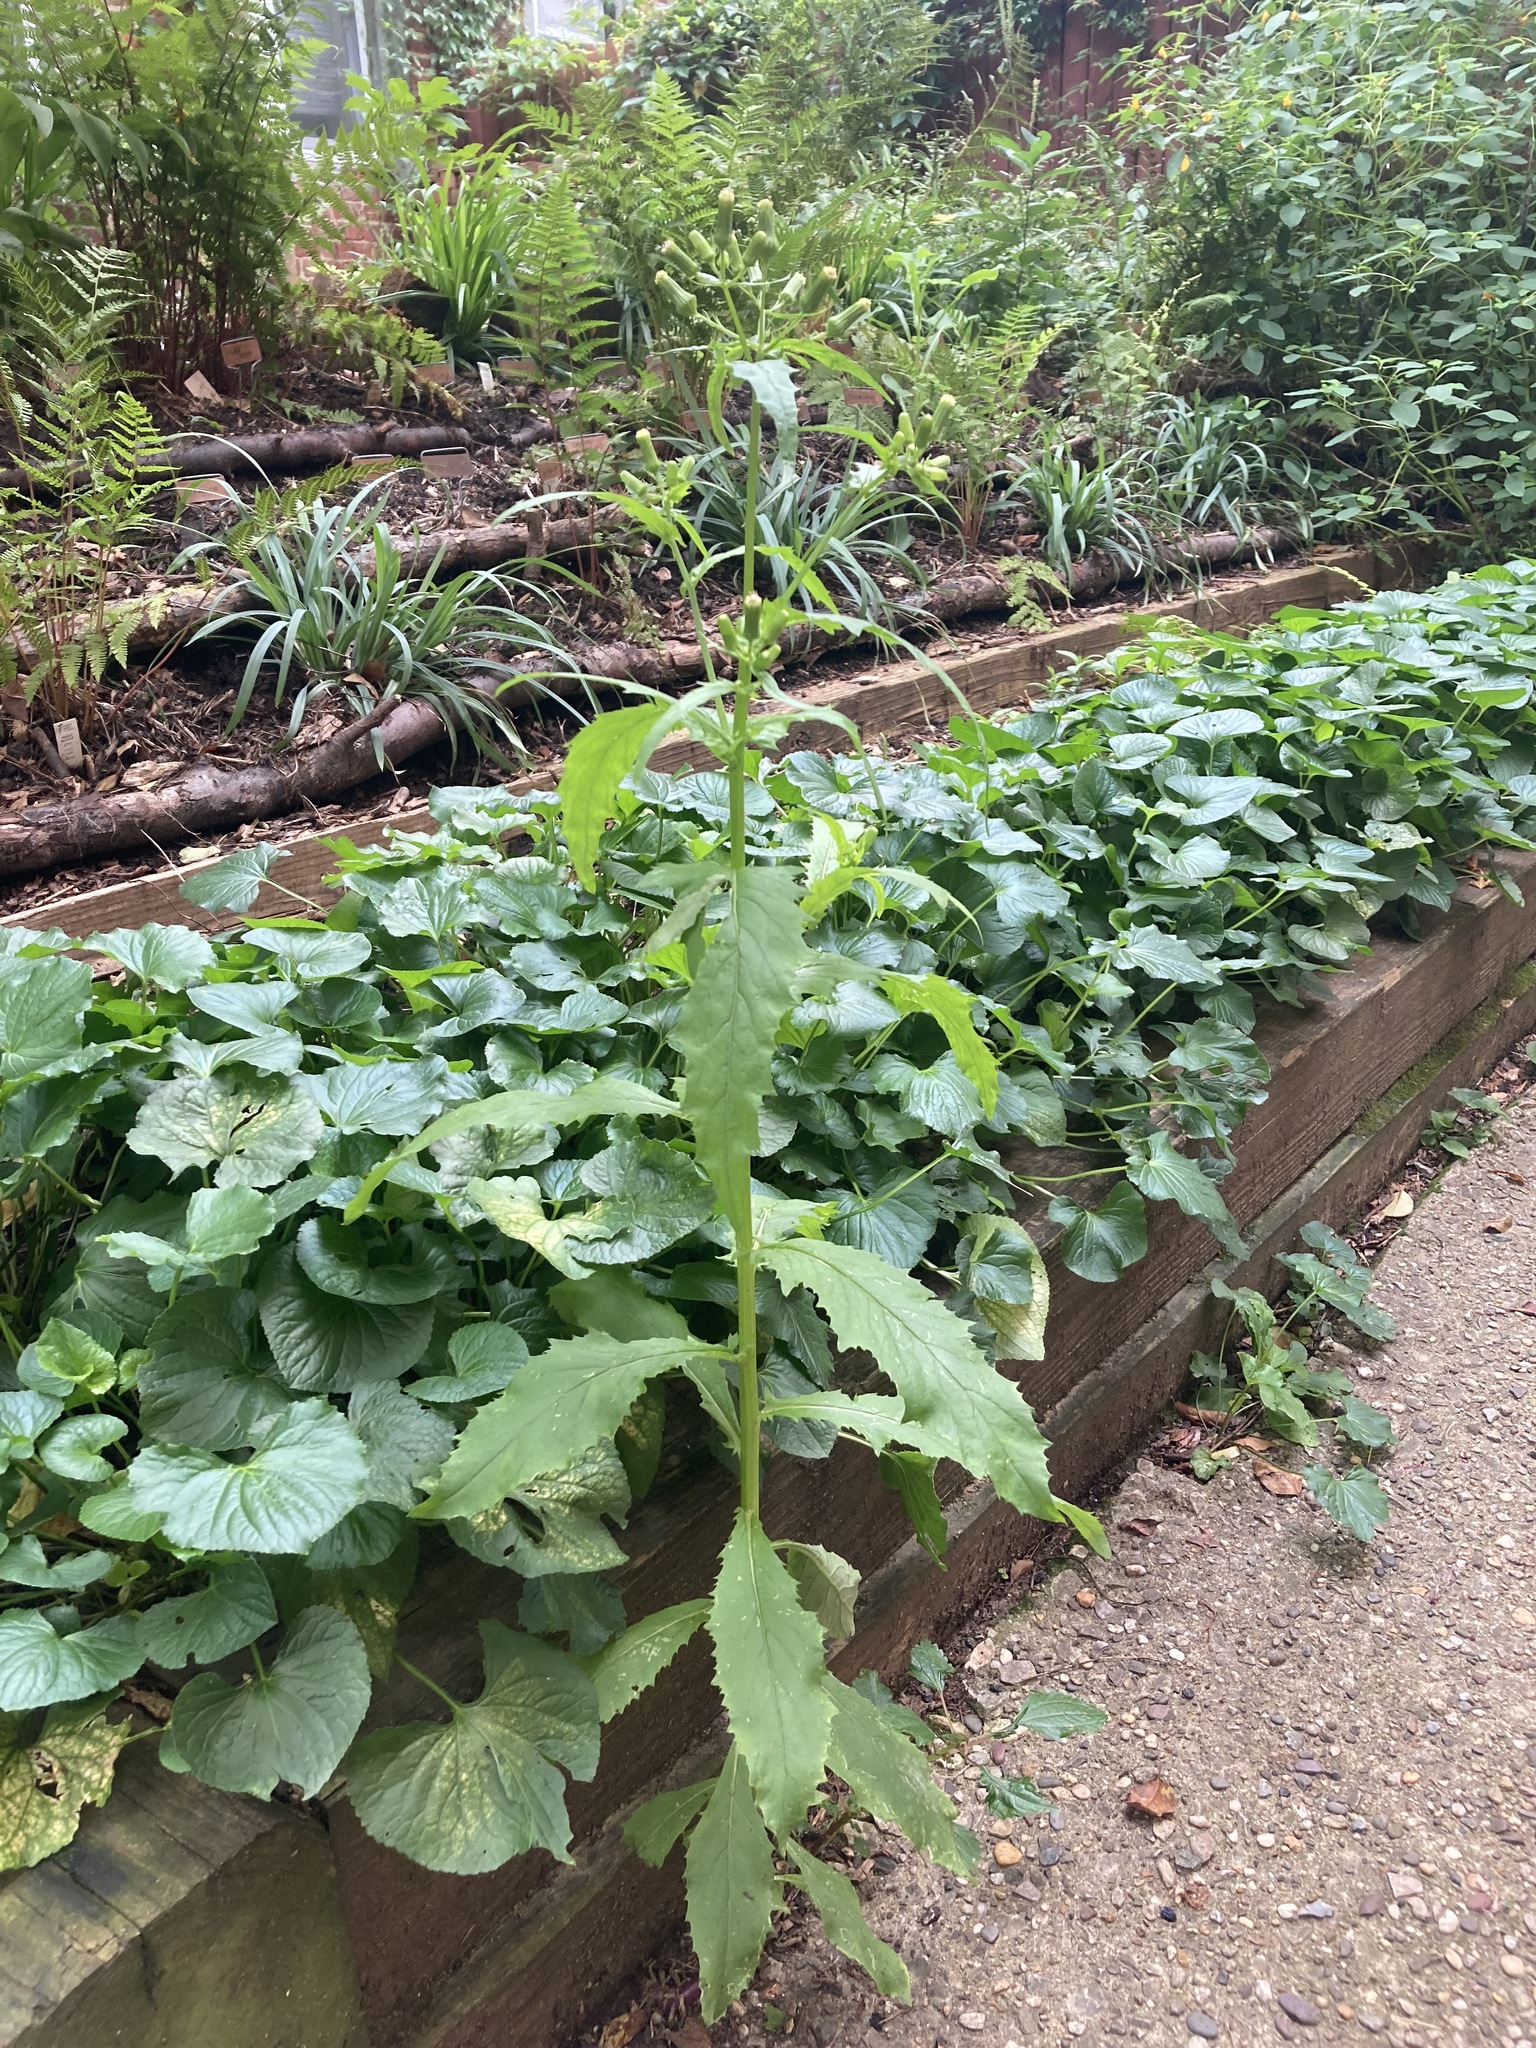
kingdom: Plantae
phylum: Tracheophyta
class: Magnoliopsida
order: Asterales
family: Asteraceae
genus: Erechtites
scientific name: Erechtites hieraciifolius
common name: American burnweed
